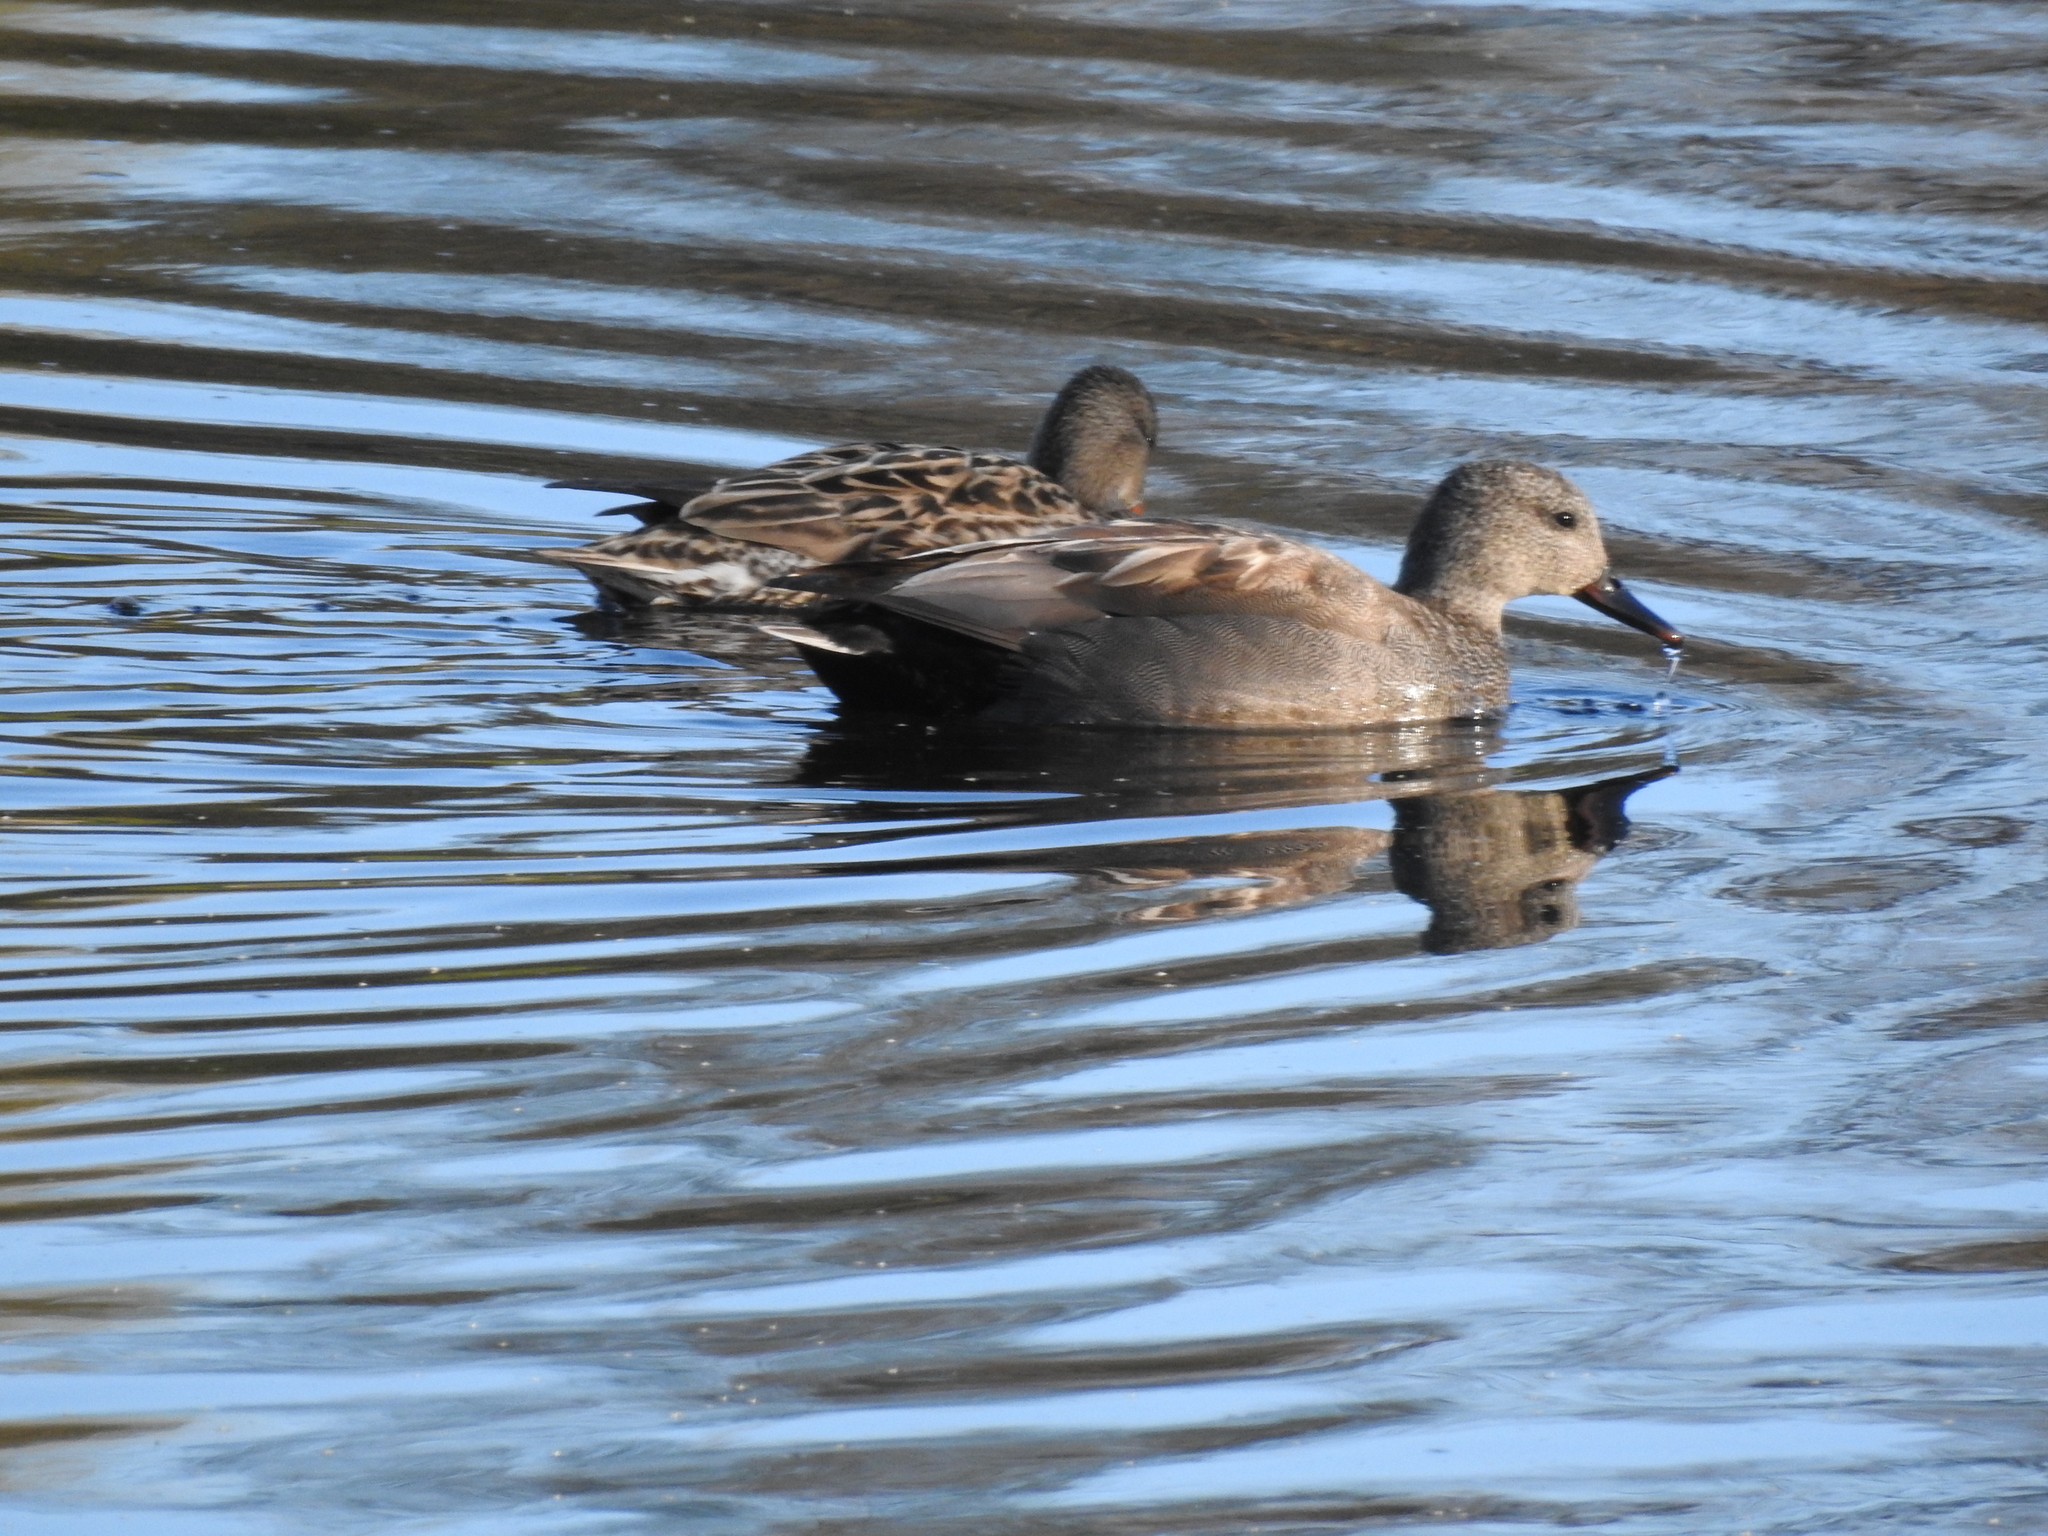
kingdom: Animalia
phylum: Chordata
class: Aves
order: Anseriformes
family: Anatidae
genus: Mareca
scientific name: Mareca strepera
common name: Gadwall
